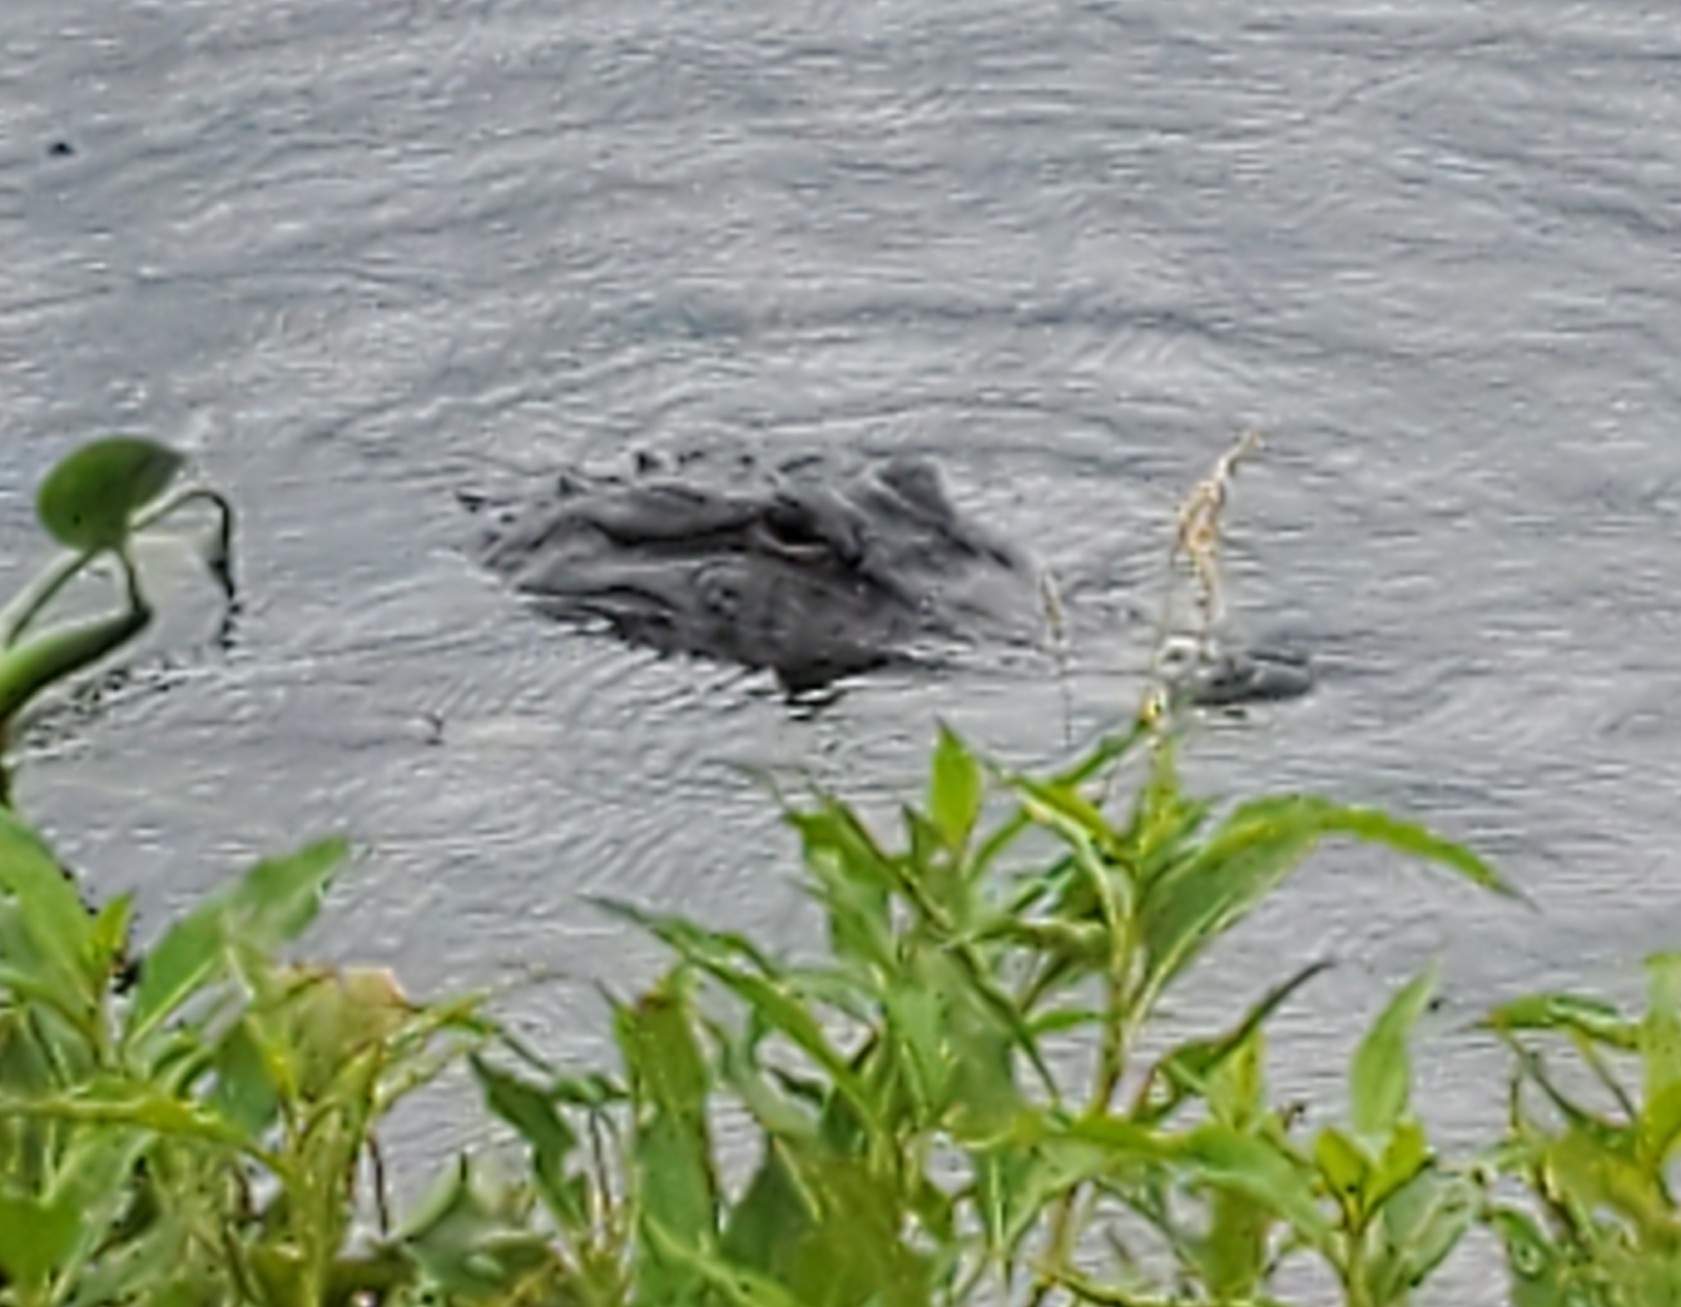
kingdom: Animalia
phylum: Chordata
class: Crocodylia
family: Alligatoridae
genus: Alligator
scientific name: Alligator mississippiensis
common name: American alligator
